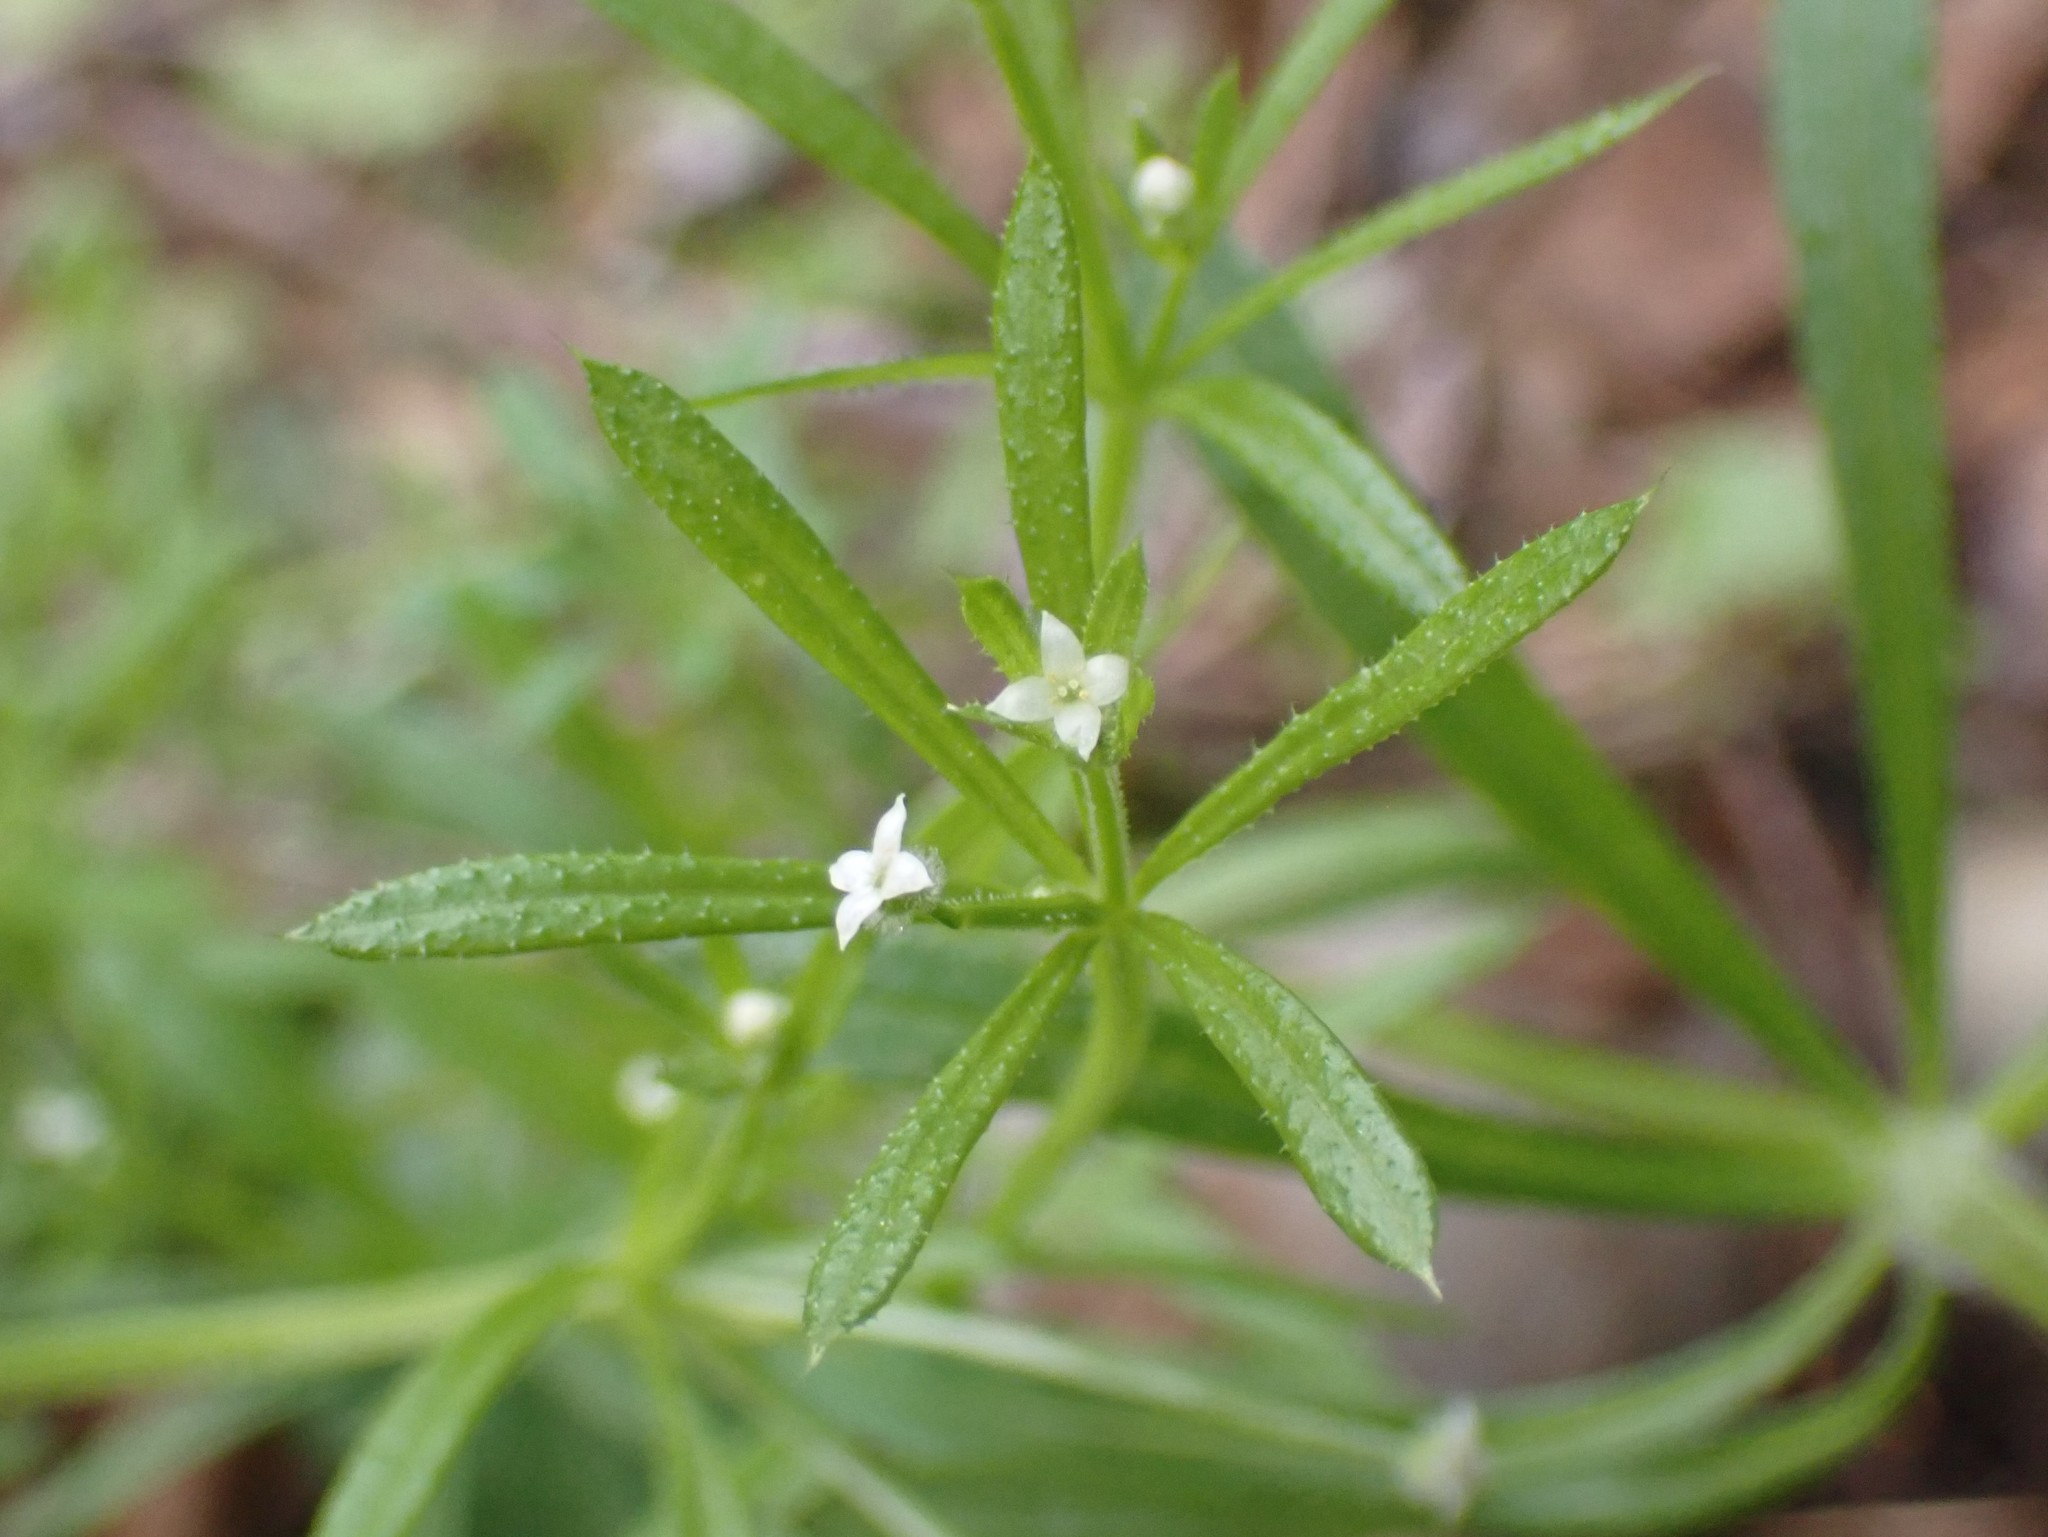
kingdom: Plantae
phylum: Tracheophyta
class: Magnoliopsida
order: Gentianales
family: Rubiaceae
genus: Galium
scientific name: Galium aparine
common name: Cleavers
